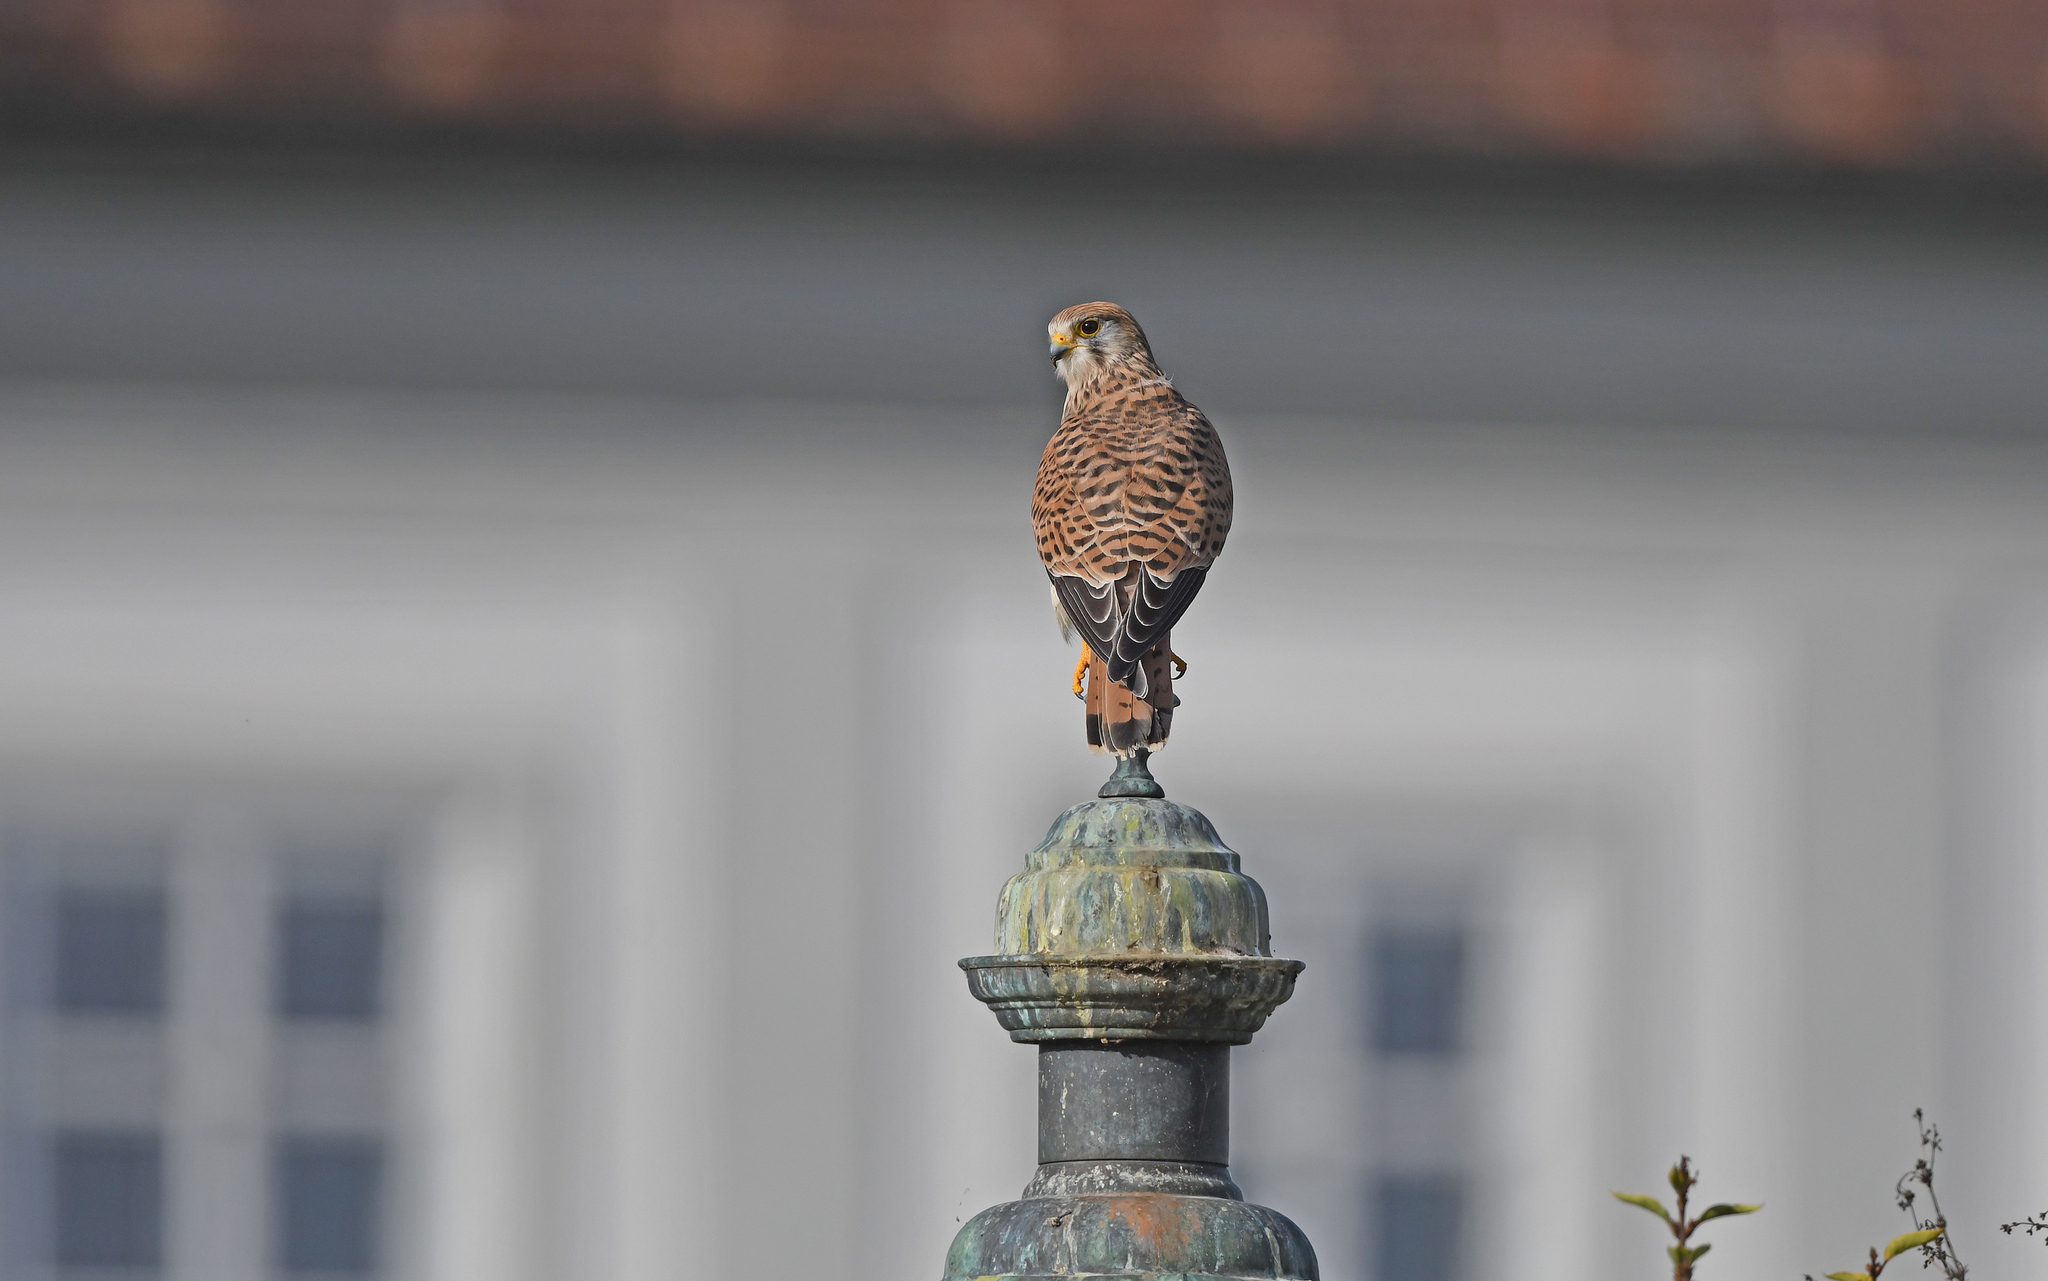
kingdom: Animalia
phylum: Chordata
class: Aves
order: Falconiformes
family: Falconidae
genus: Falco
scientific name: Falco tinnunculus
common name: Common kestrel
